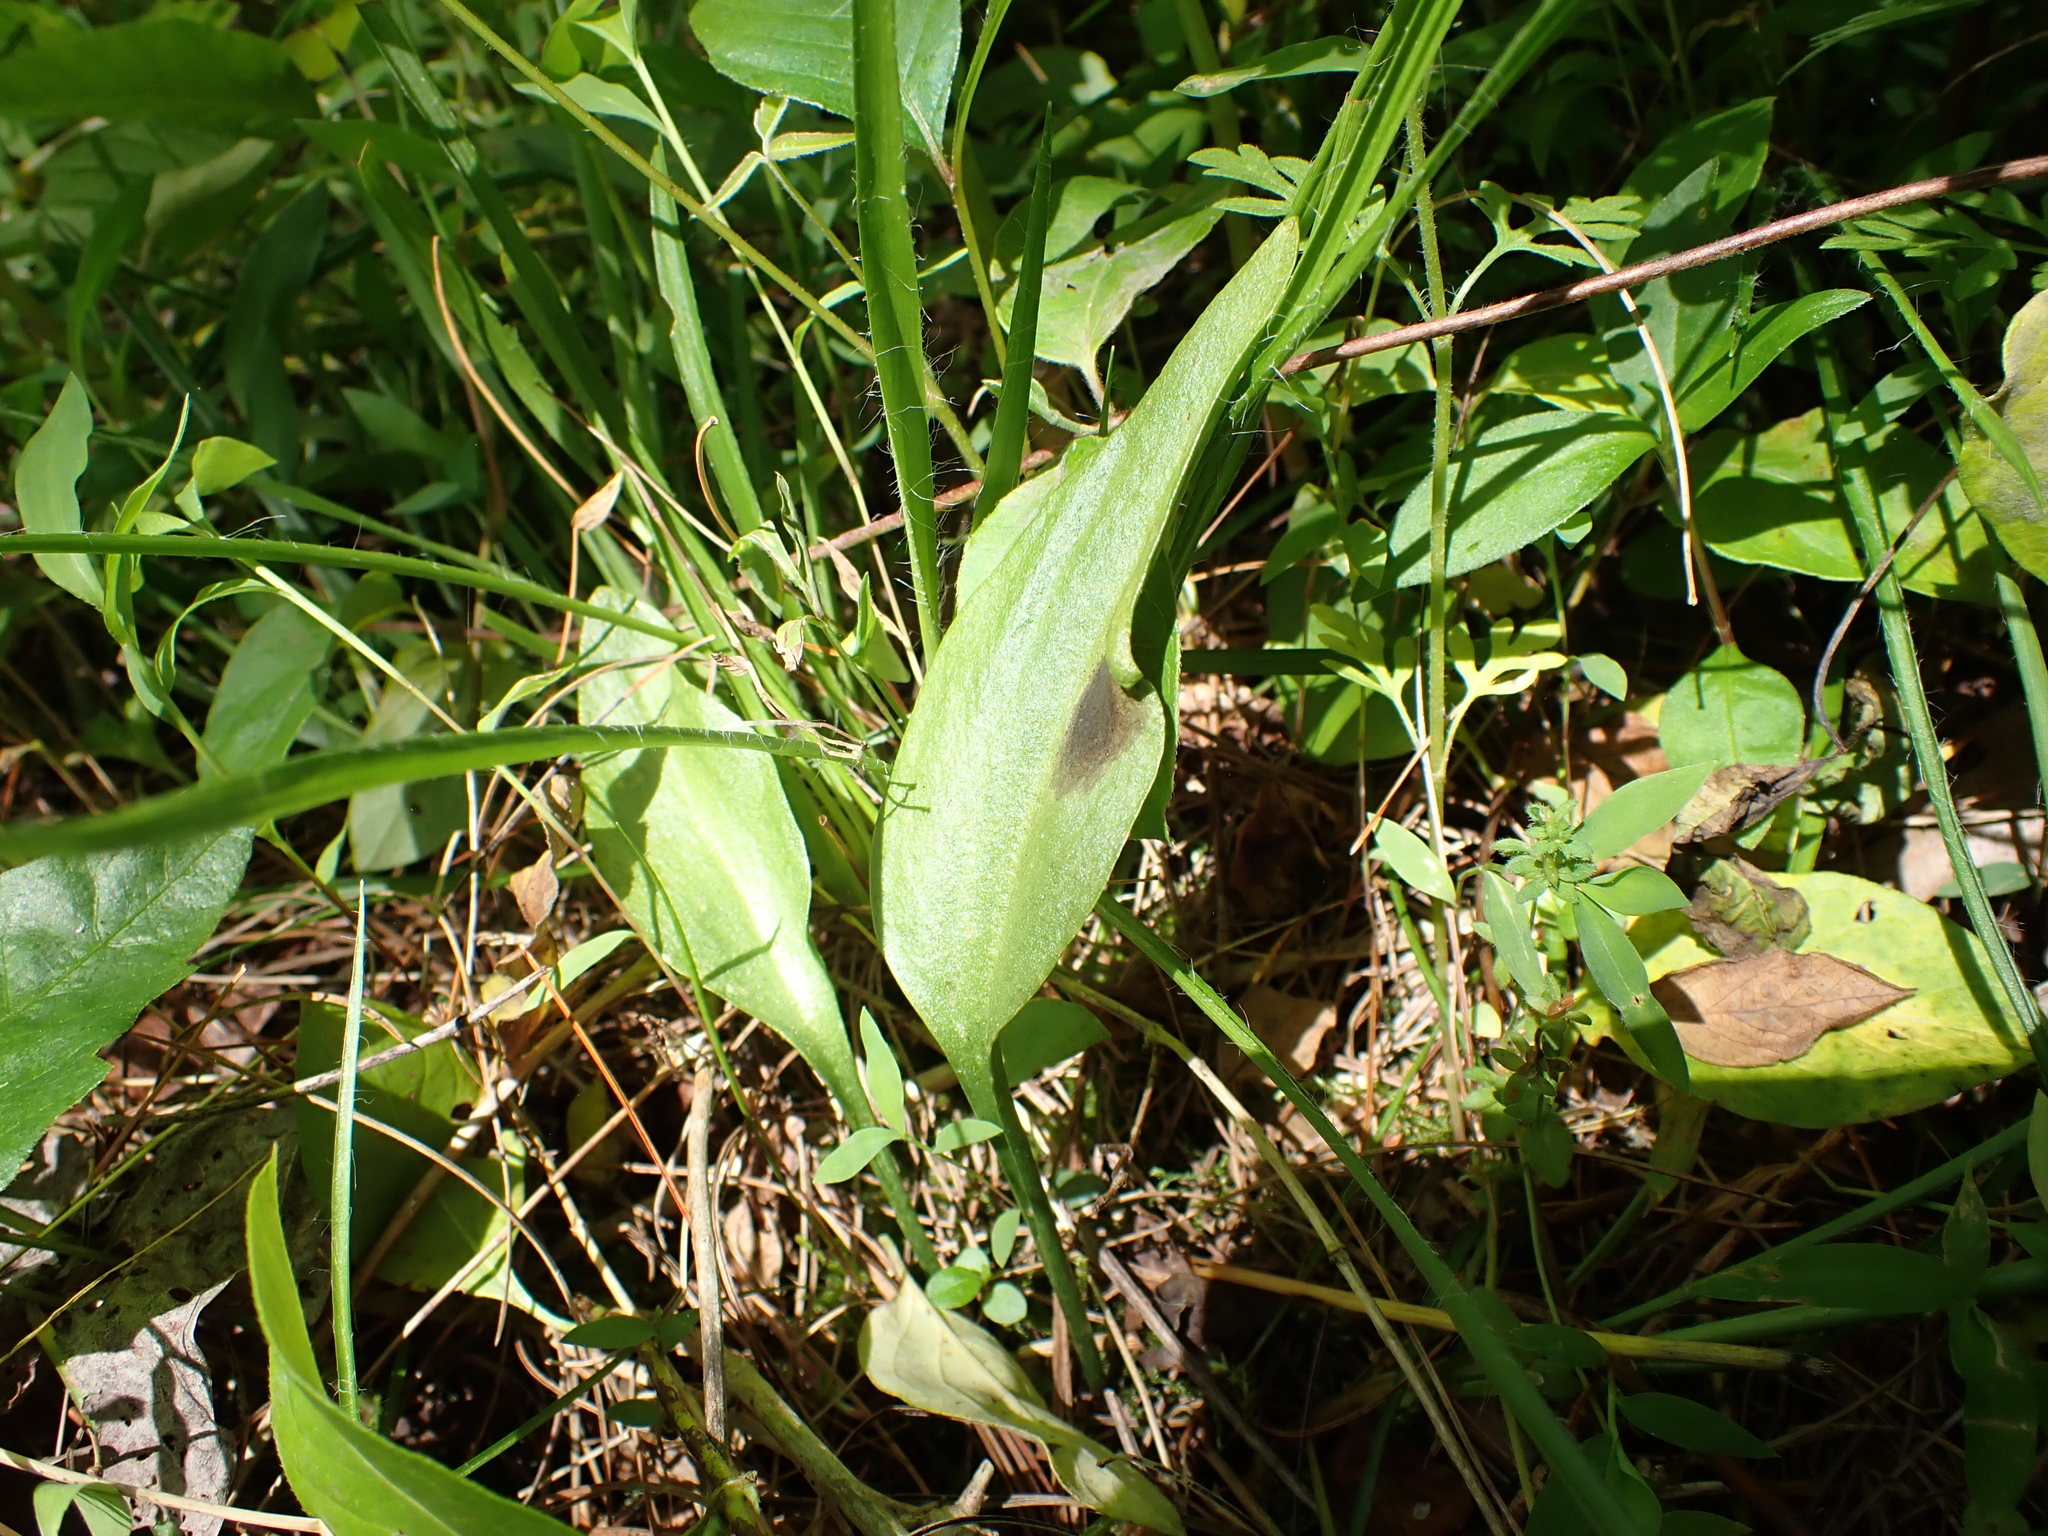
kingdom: Plantae
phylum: Tracheophyta
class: Polypodiopsida
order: Ophioglossales
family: Ophioglossaceae
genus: Ophioglossum
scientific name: Ophioglossum vulgatum
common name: Adder's-tongue
